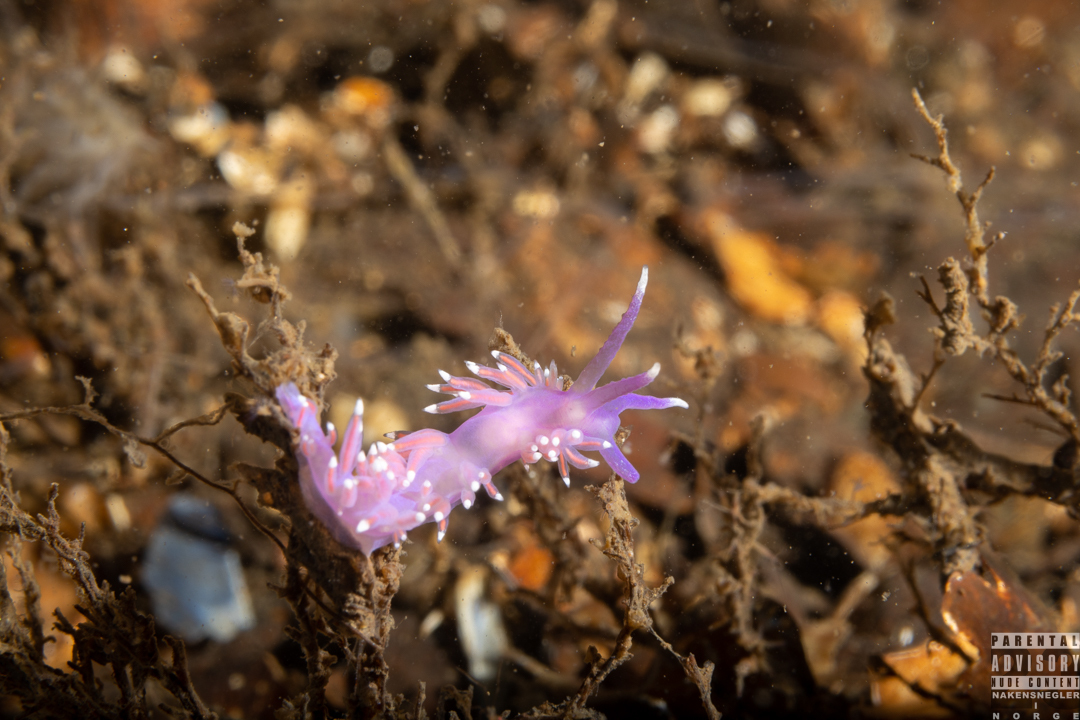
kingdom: Animalia
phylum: Mollusca
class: Gastropoda
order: Nudibranchia
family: Flabellinidae
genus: Edmundsella
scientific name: Edmundsella pedata
